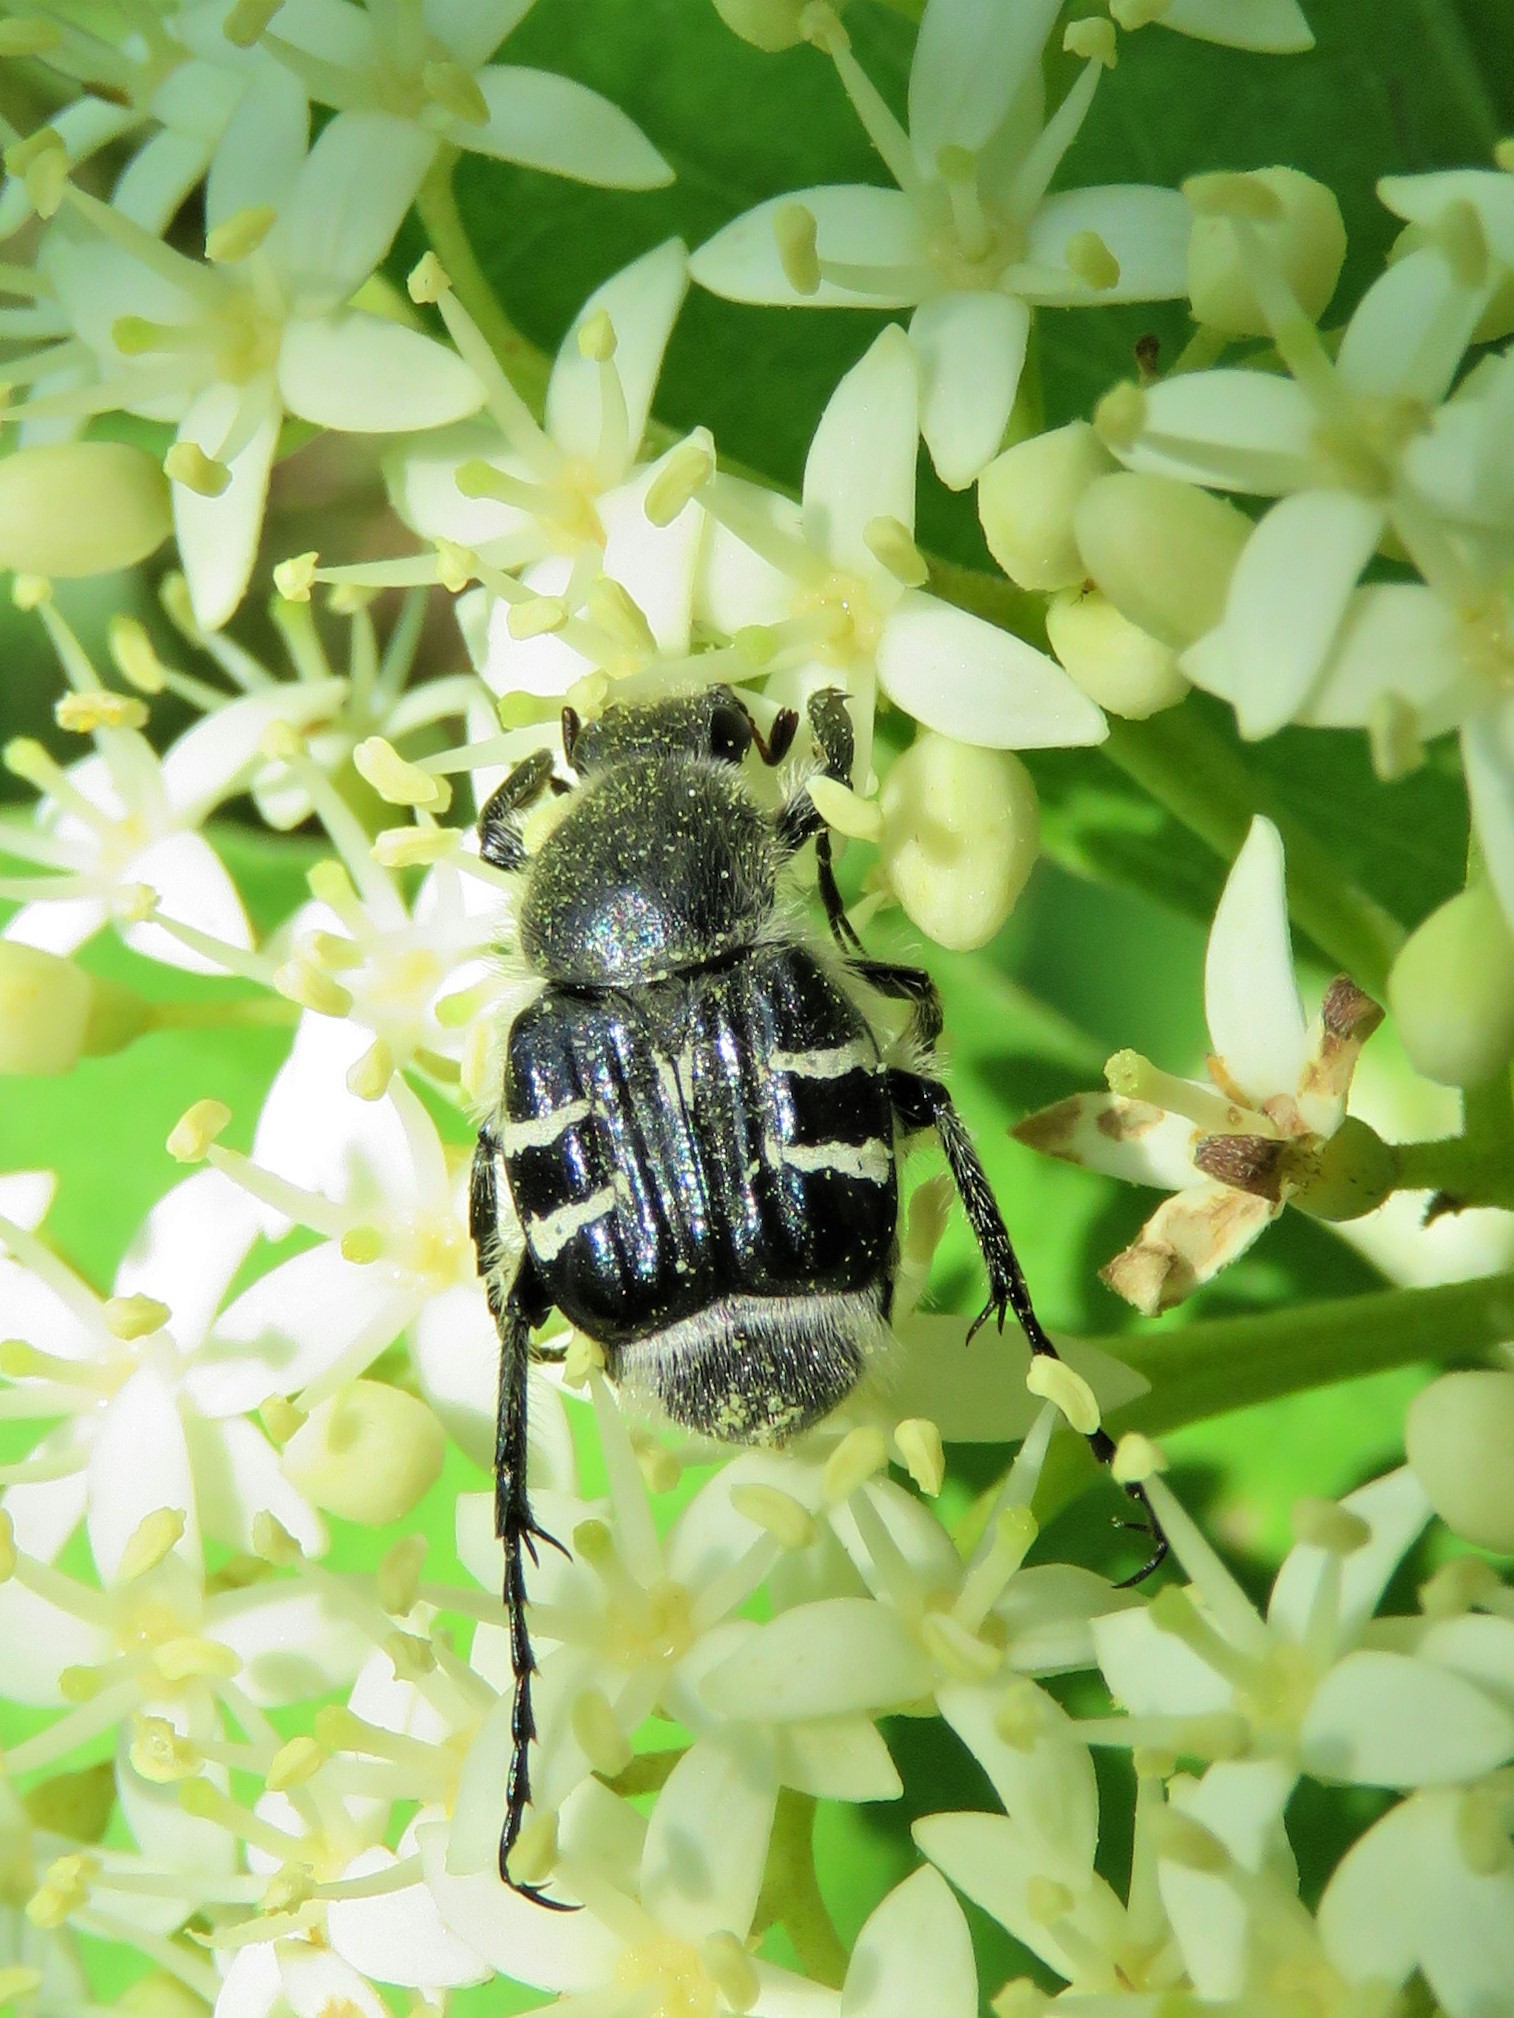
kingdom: Animalia
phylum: Arthropoda
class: Insecta
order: Coleoptera
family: Scarabaeidae
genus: Trichiotinus
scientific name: Trichiotinus texanus
